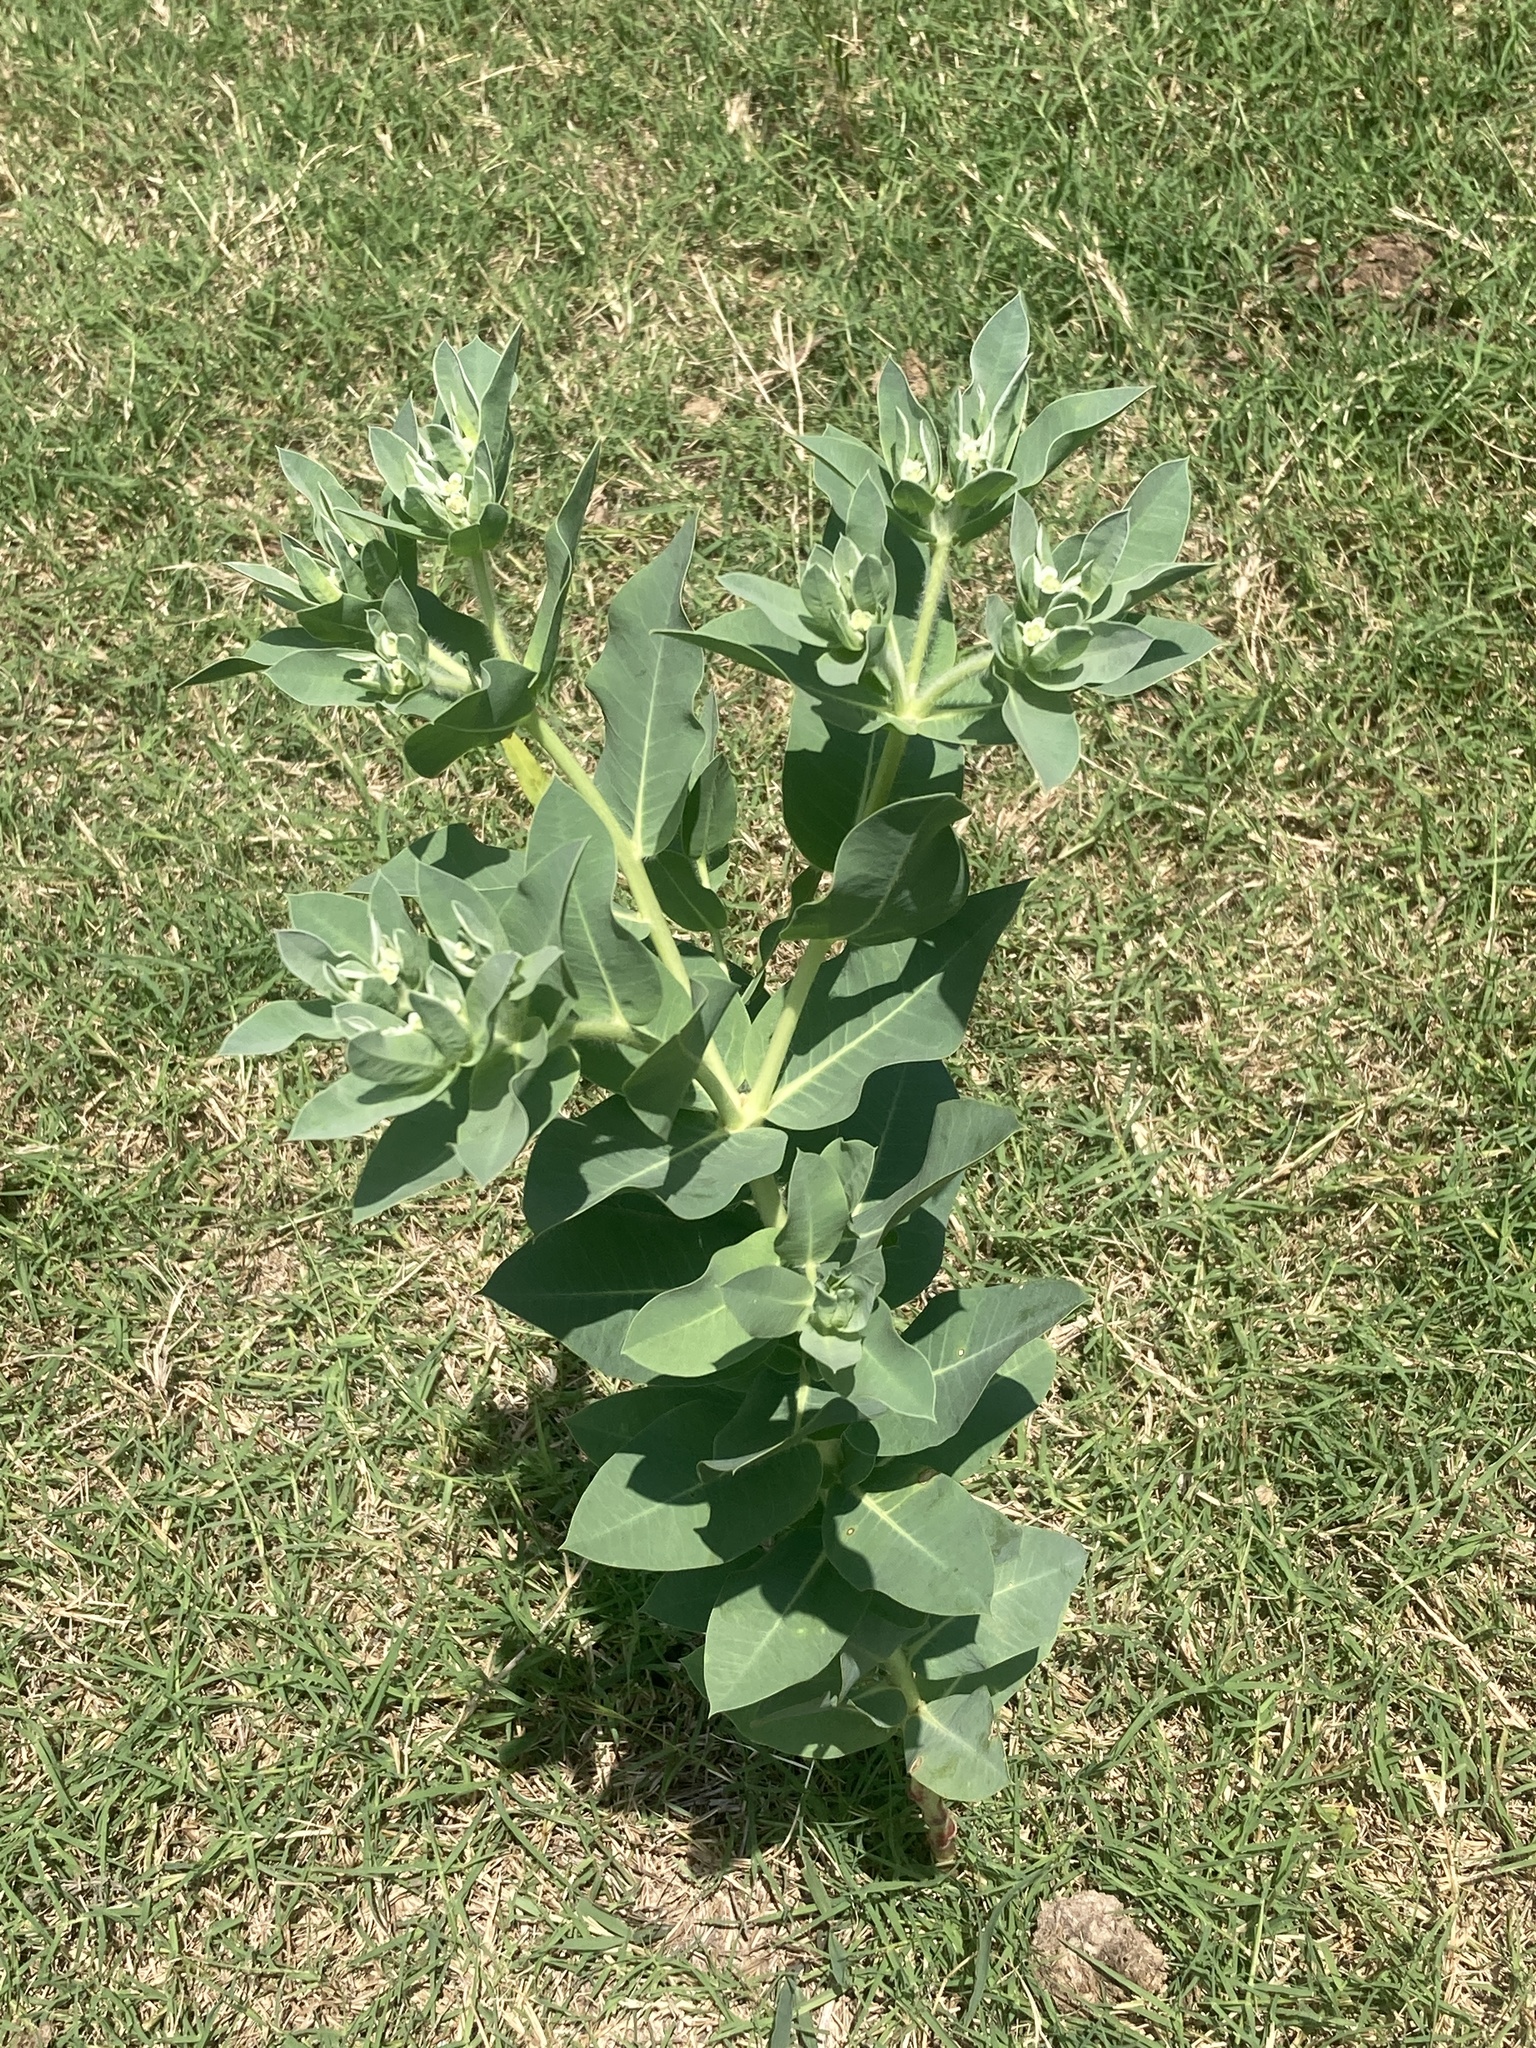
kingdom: Plantae
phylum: Tracheophyta
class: Magnoliopsida
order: Malpighiales
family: Euphorbiaceae
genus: Euphorbia
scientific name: Euphorbia marginata
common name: Ghostweed
